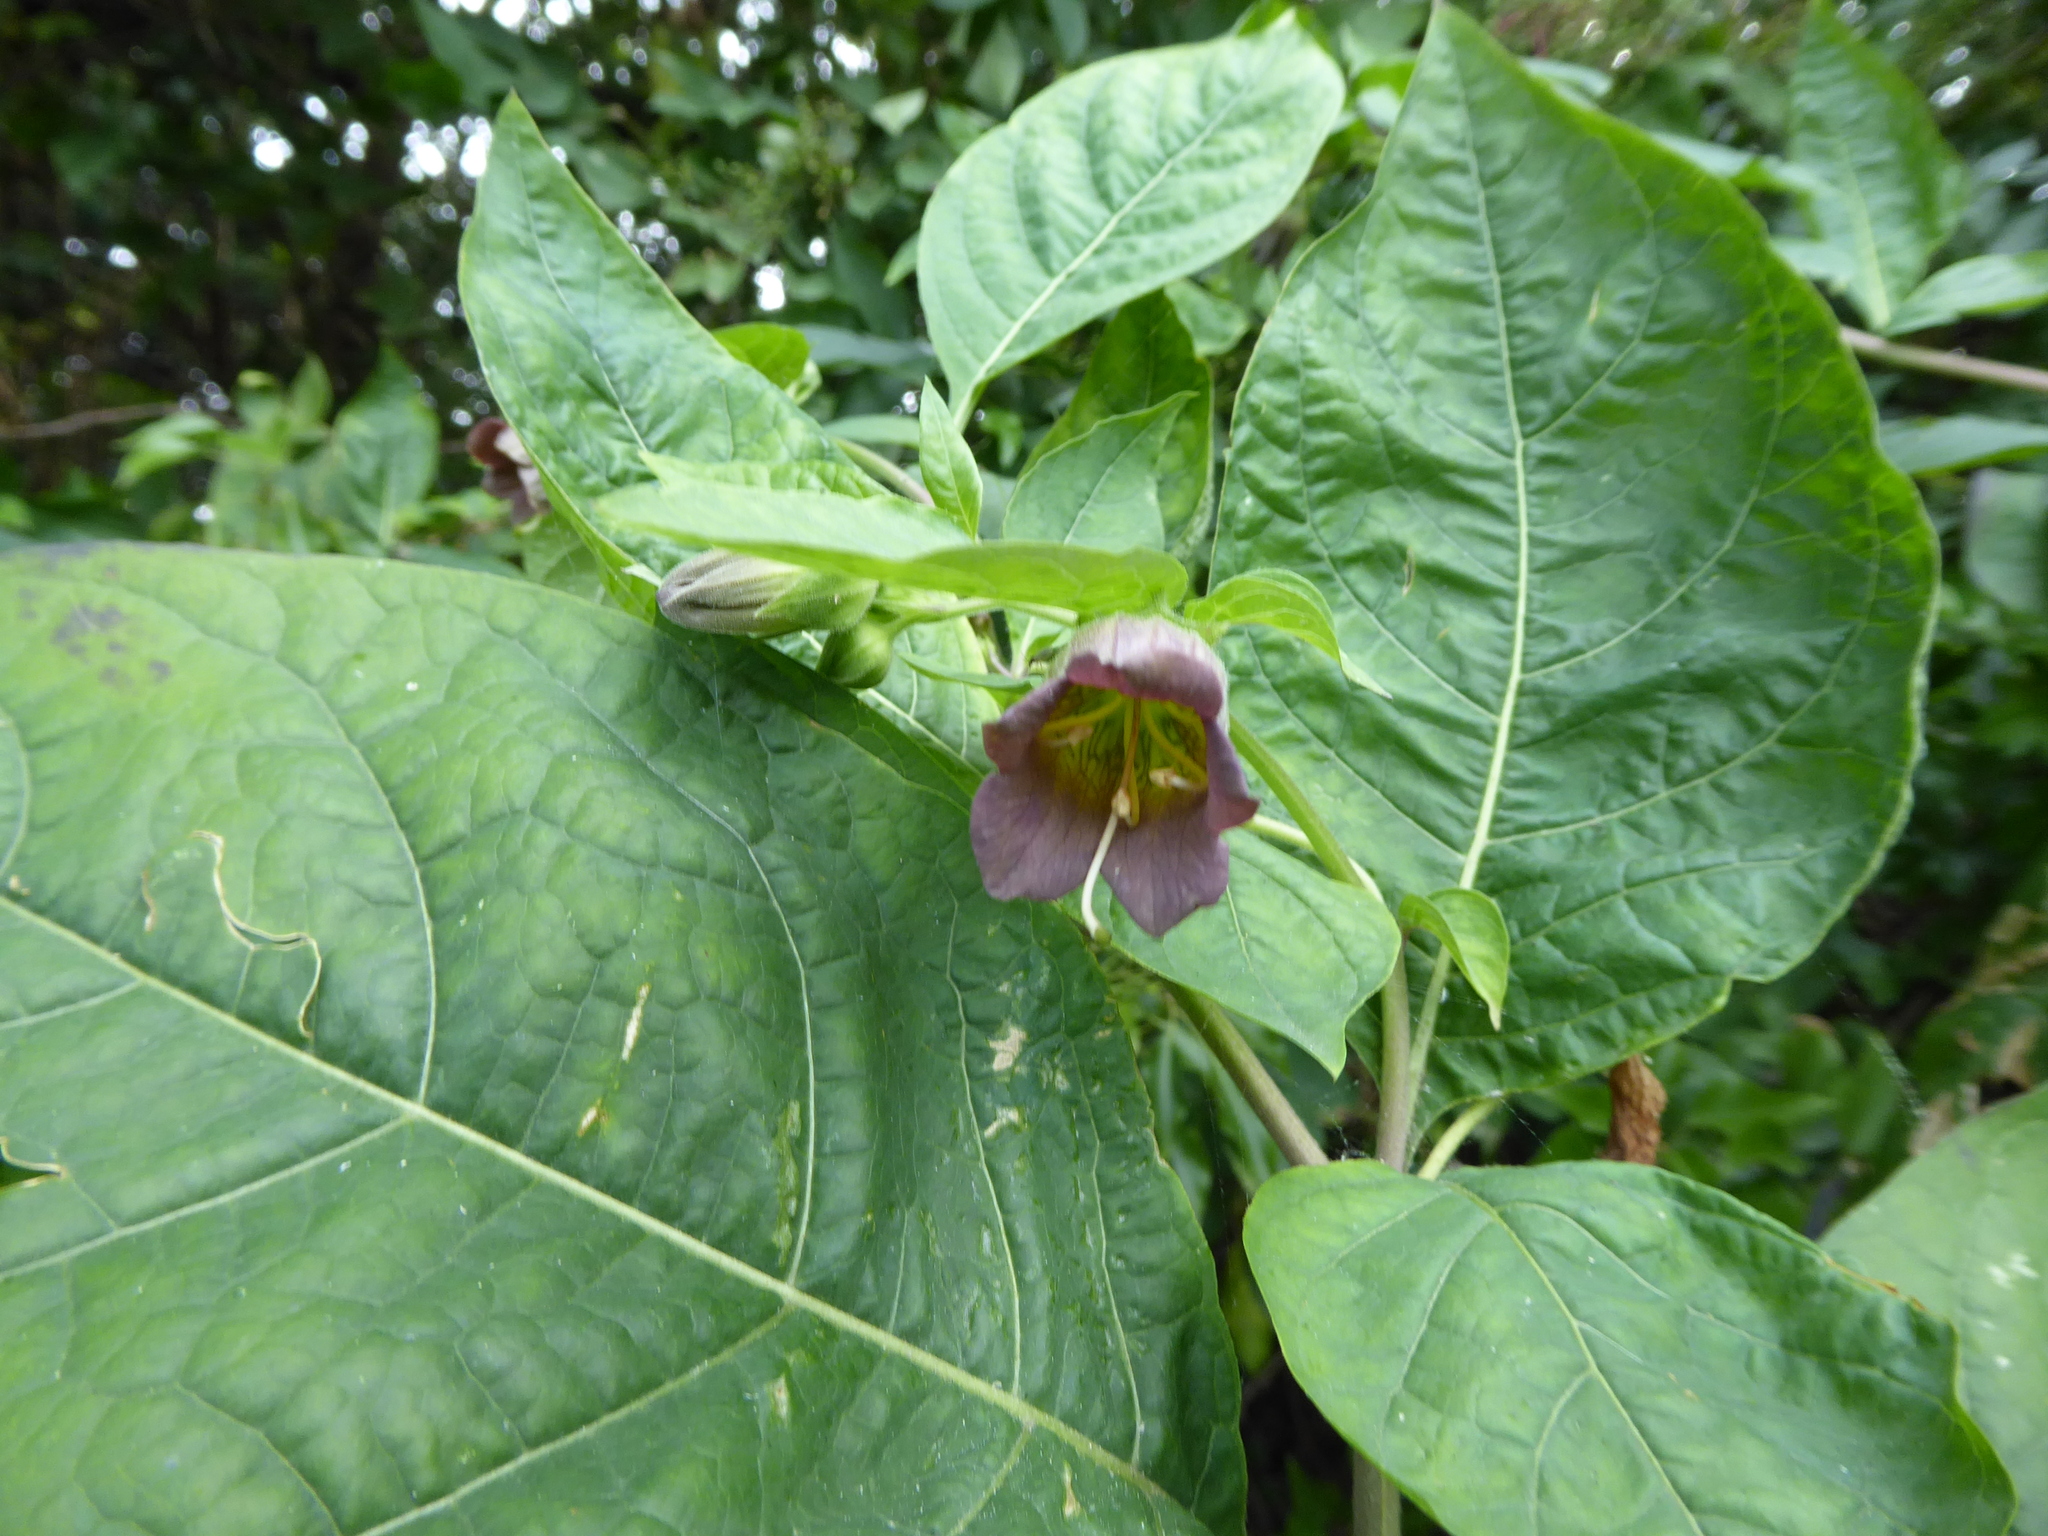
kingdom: Plantae
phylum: Tracheophyta
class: Magnoliopsida
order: Solanales
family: Solanaceae
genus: Atropa
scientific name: Atropa belladonna
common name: Deadly nightshade
